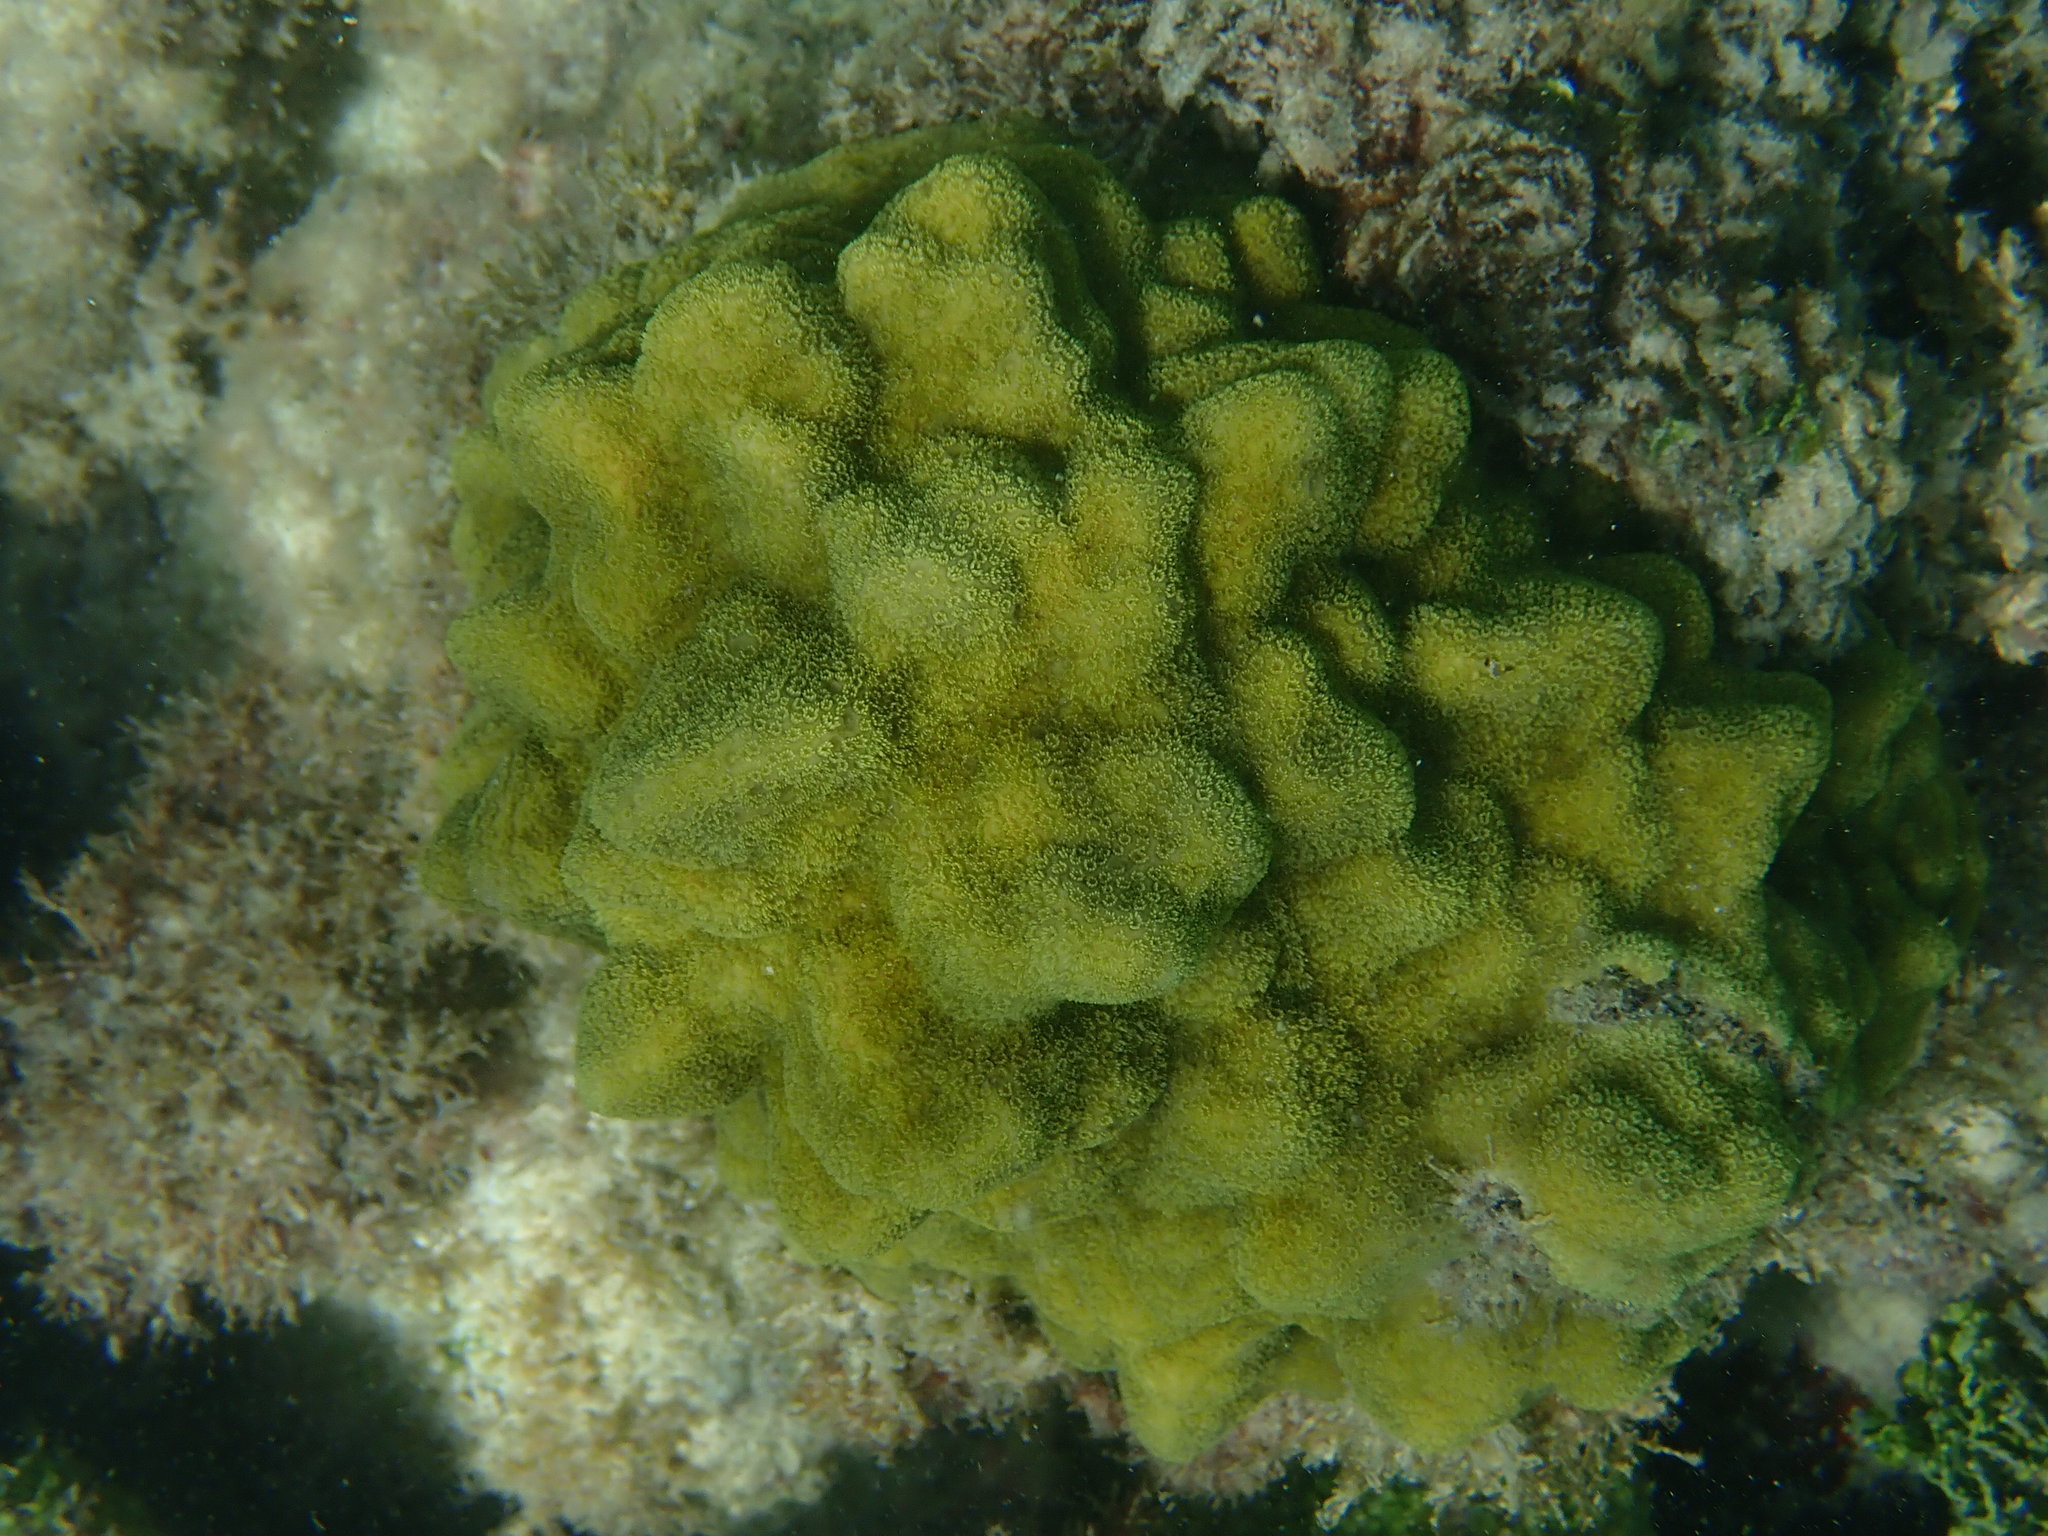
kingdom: Animalia
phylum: Cnidaria
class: Anthozoa
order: Scleractinia
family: Poritidae
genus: Porites
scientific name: Porites astreoides
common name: Mustard hill coral
